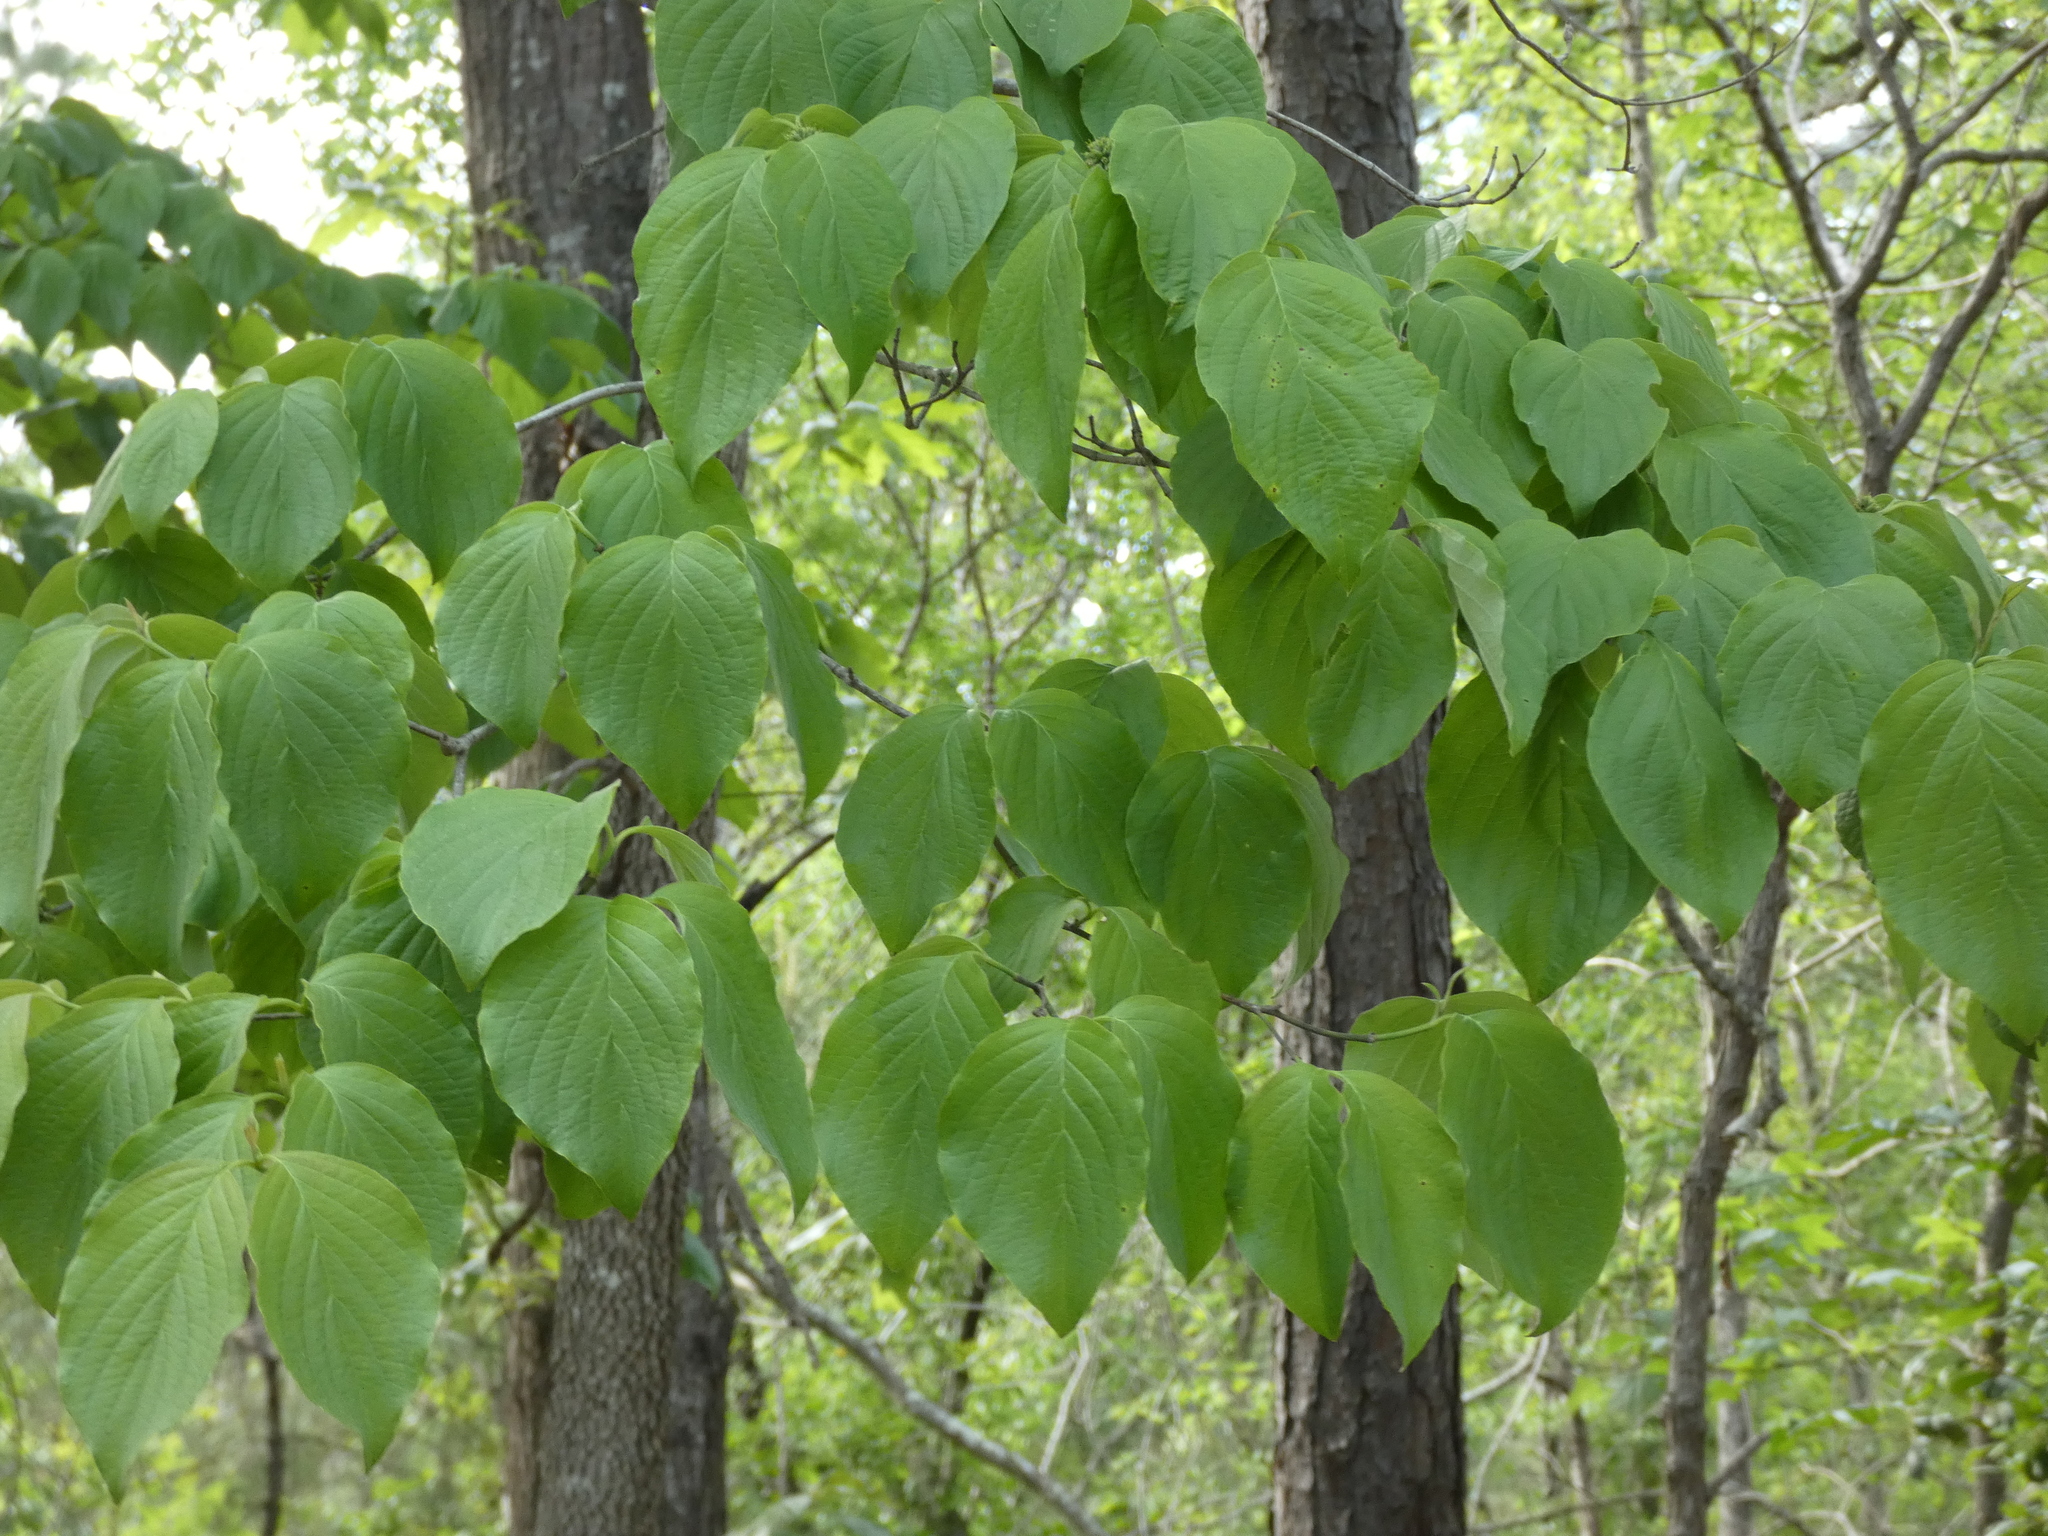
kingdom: Plantae
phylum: Tracheophyta
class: Magnoliopsida
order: Cornales
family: Cornaceae
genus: Cornus
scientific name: Cornus florida
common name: Flowering dogwood
